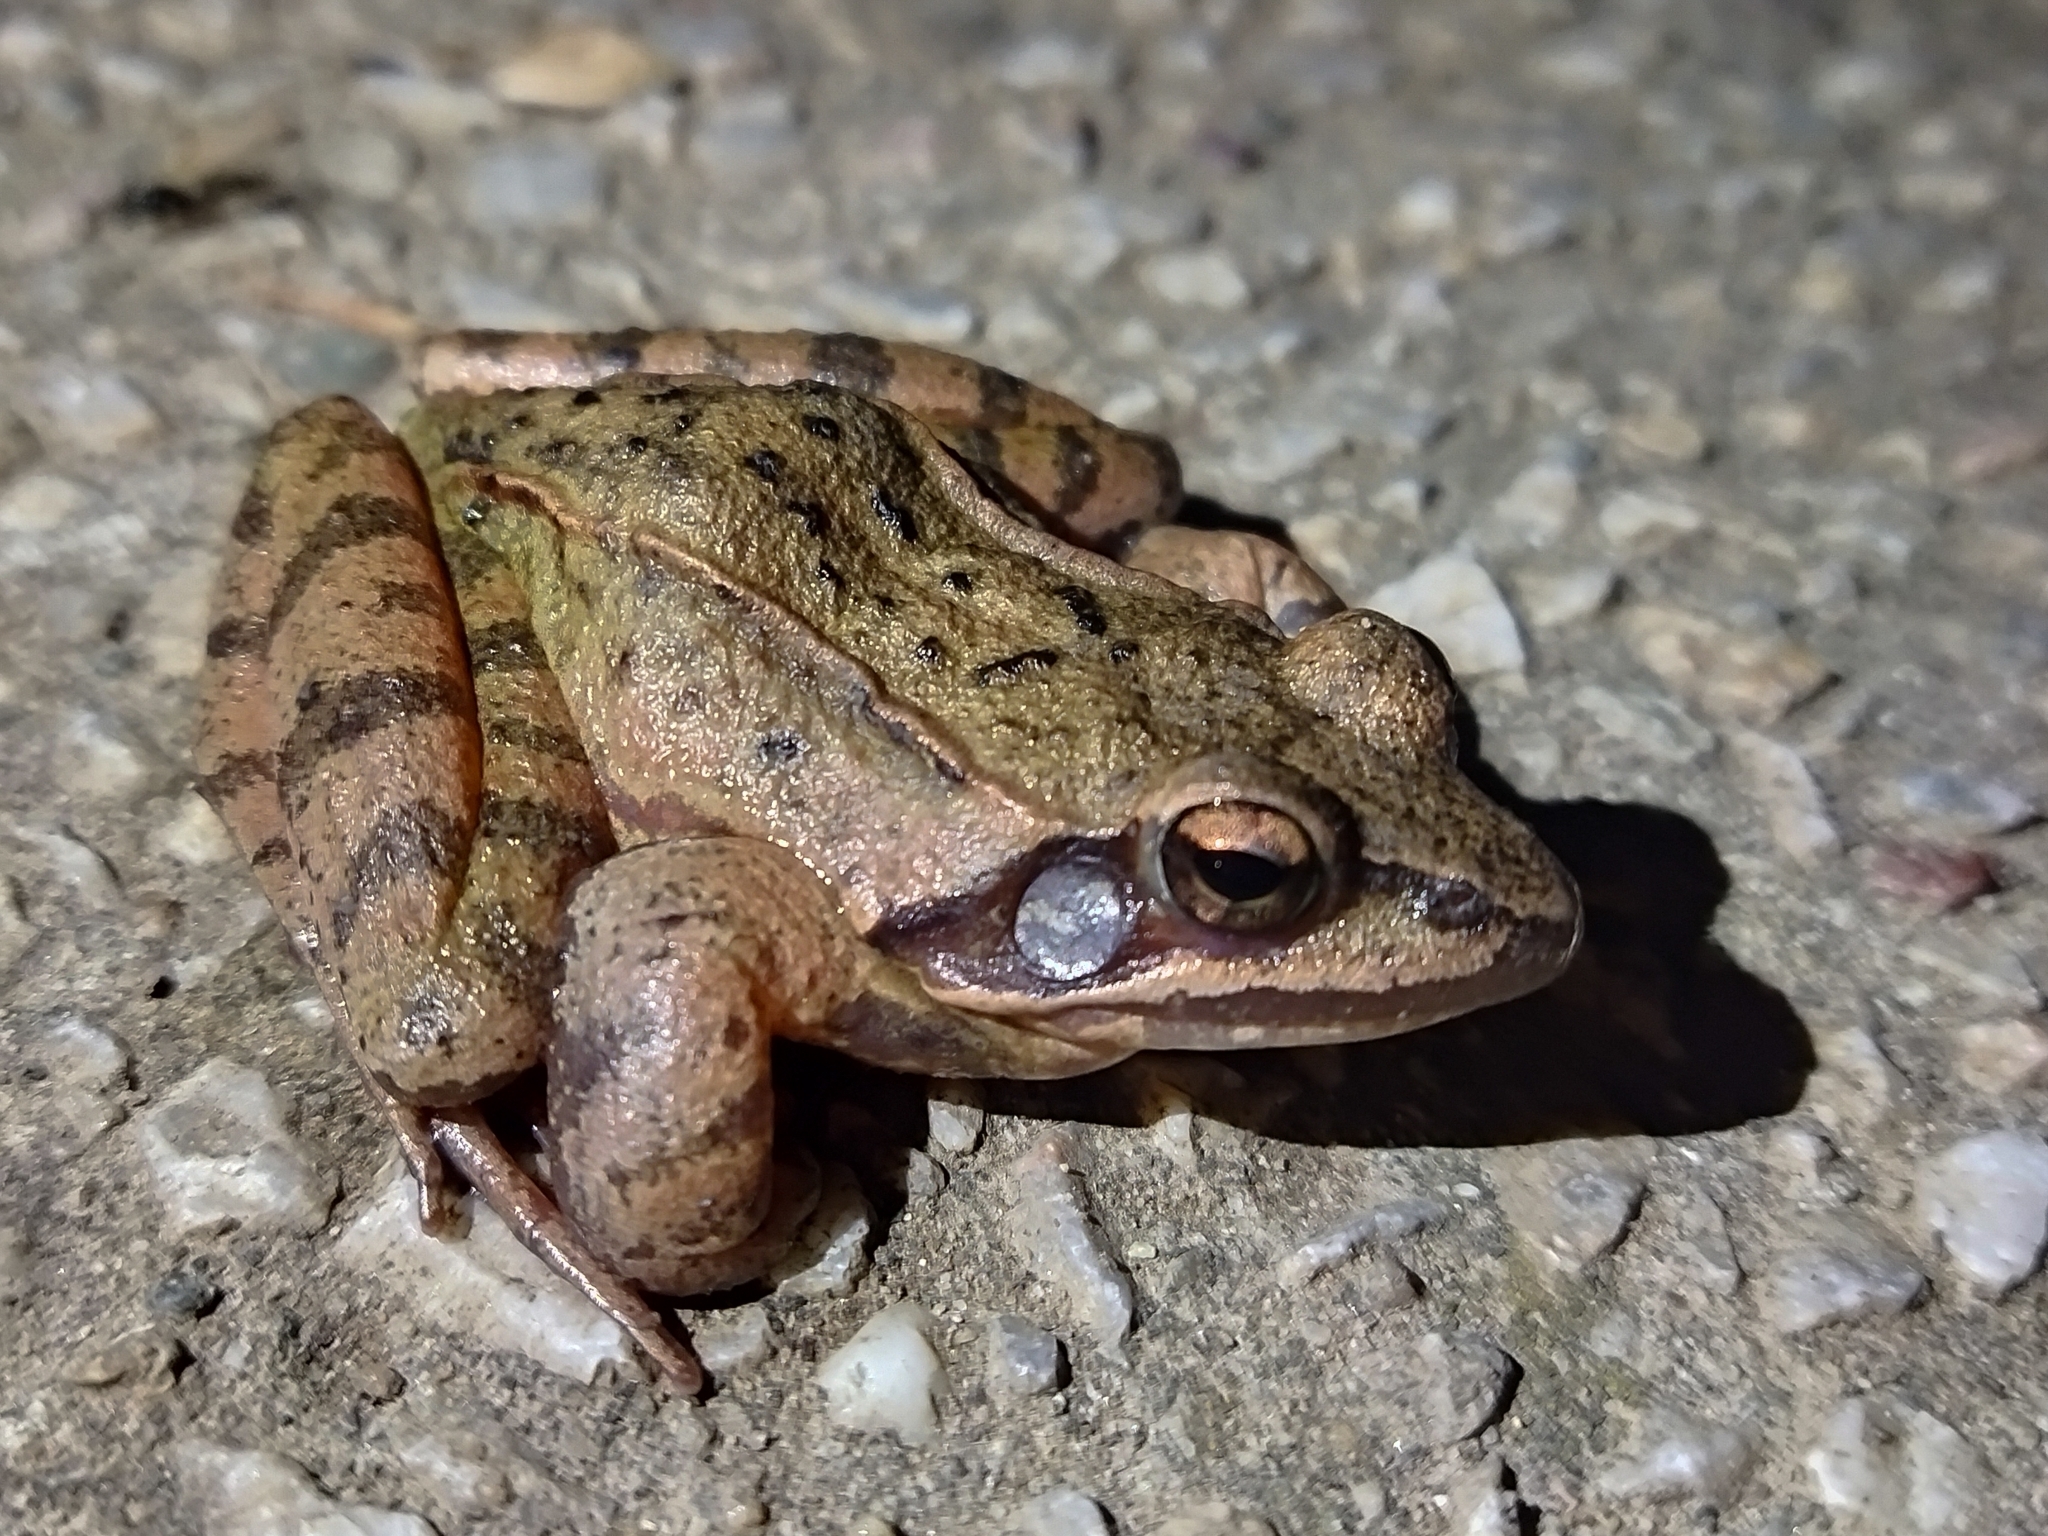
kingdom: Animalia
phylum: Chordata
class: Amphibia
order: Anura
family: Ranidae
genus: Rana
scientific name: Rana dalmatina
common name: Agile frog
